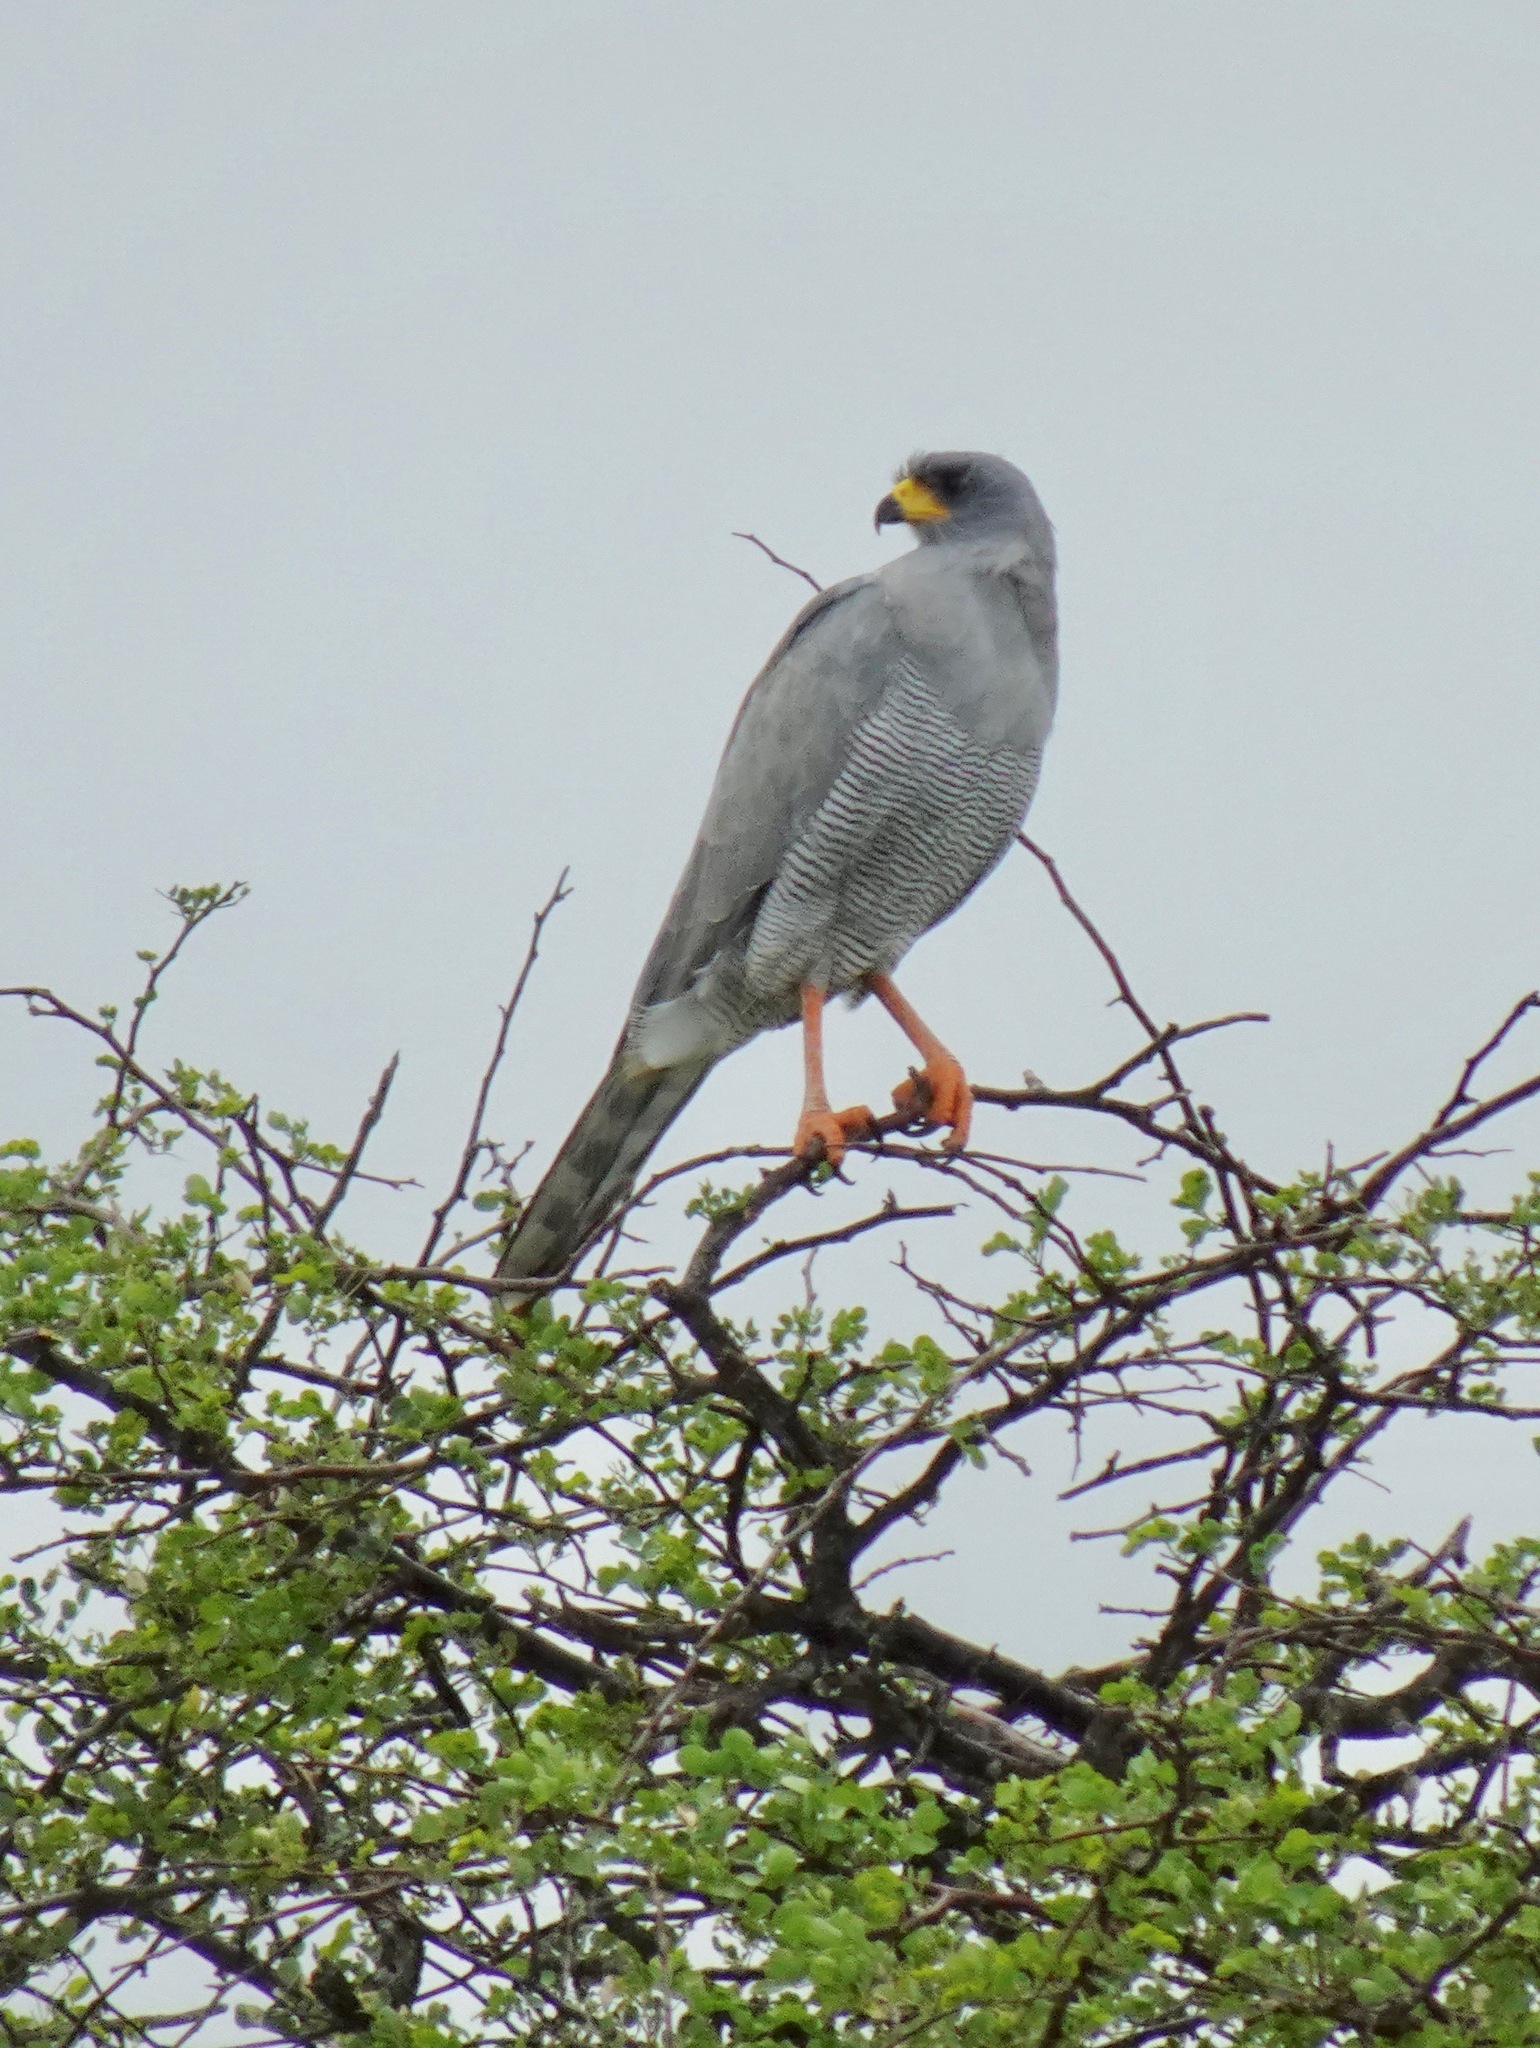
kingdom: Animalia
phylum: Chordata
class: Aves
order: Accipitriformes
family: Accipitridae
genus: Melierax
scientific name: Melierax poliopterus
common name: Eastern chanting goshawk
